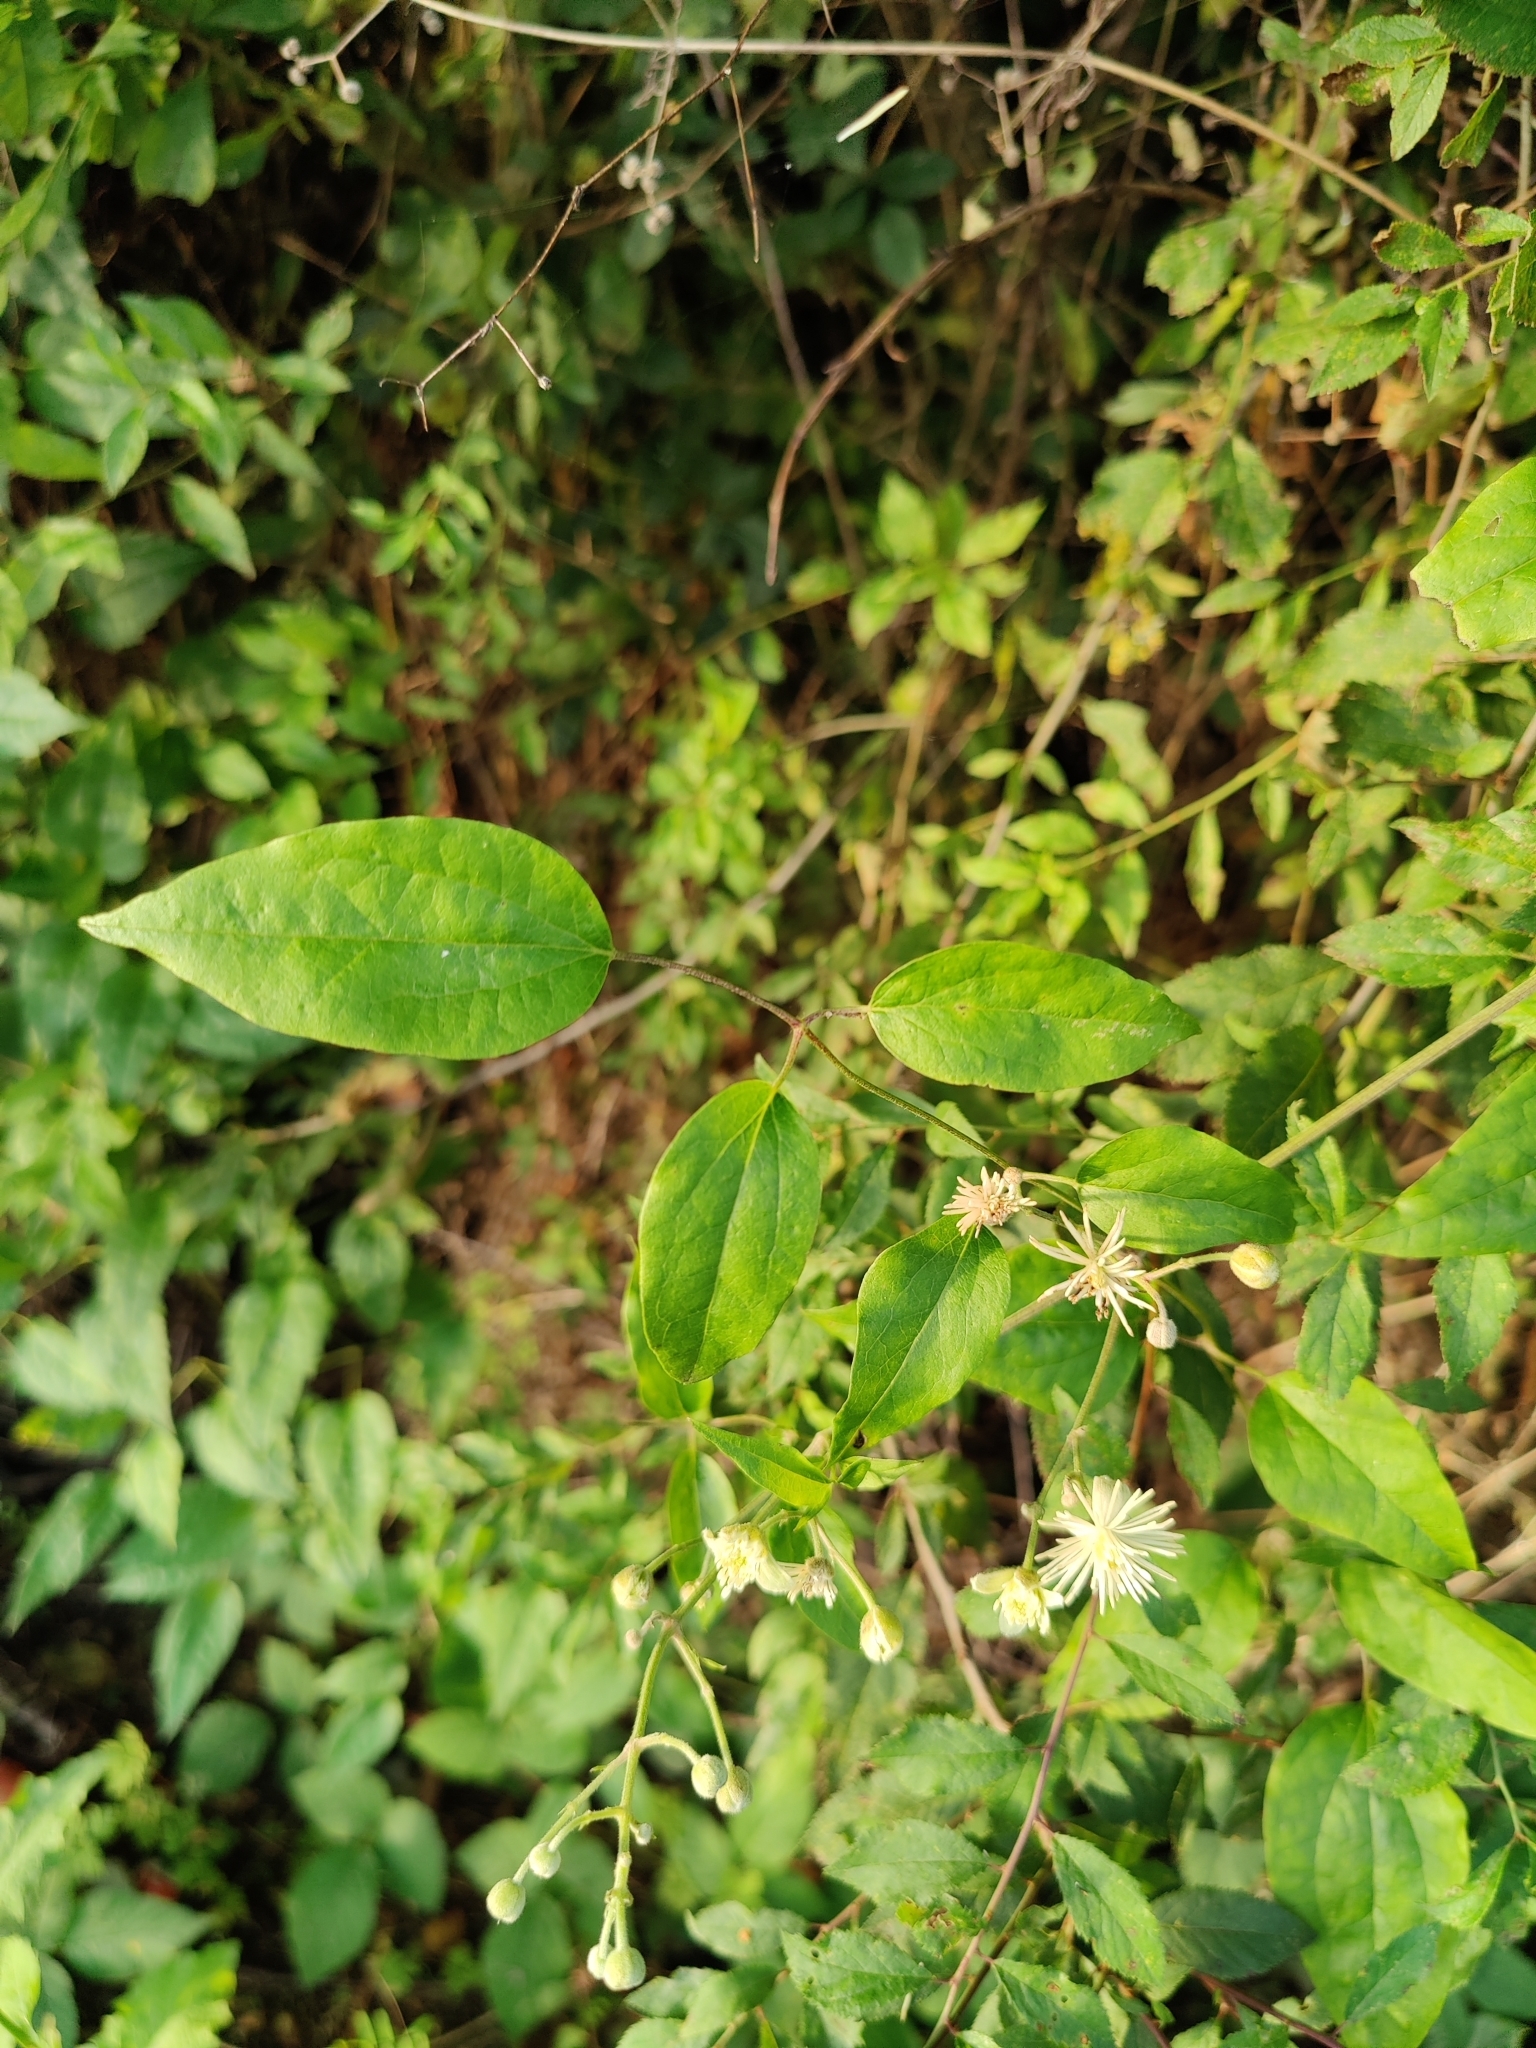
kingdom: Plantae
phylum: Tracheophyta
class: Magnoliopsida
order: Ranunculales
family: Ranunculaceae
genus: Clematis
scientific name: Clematis vitalba
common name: Evergreen clematis
